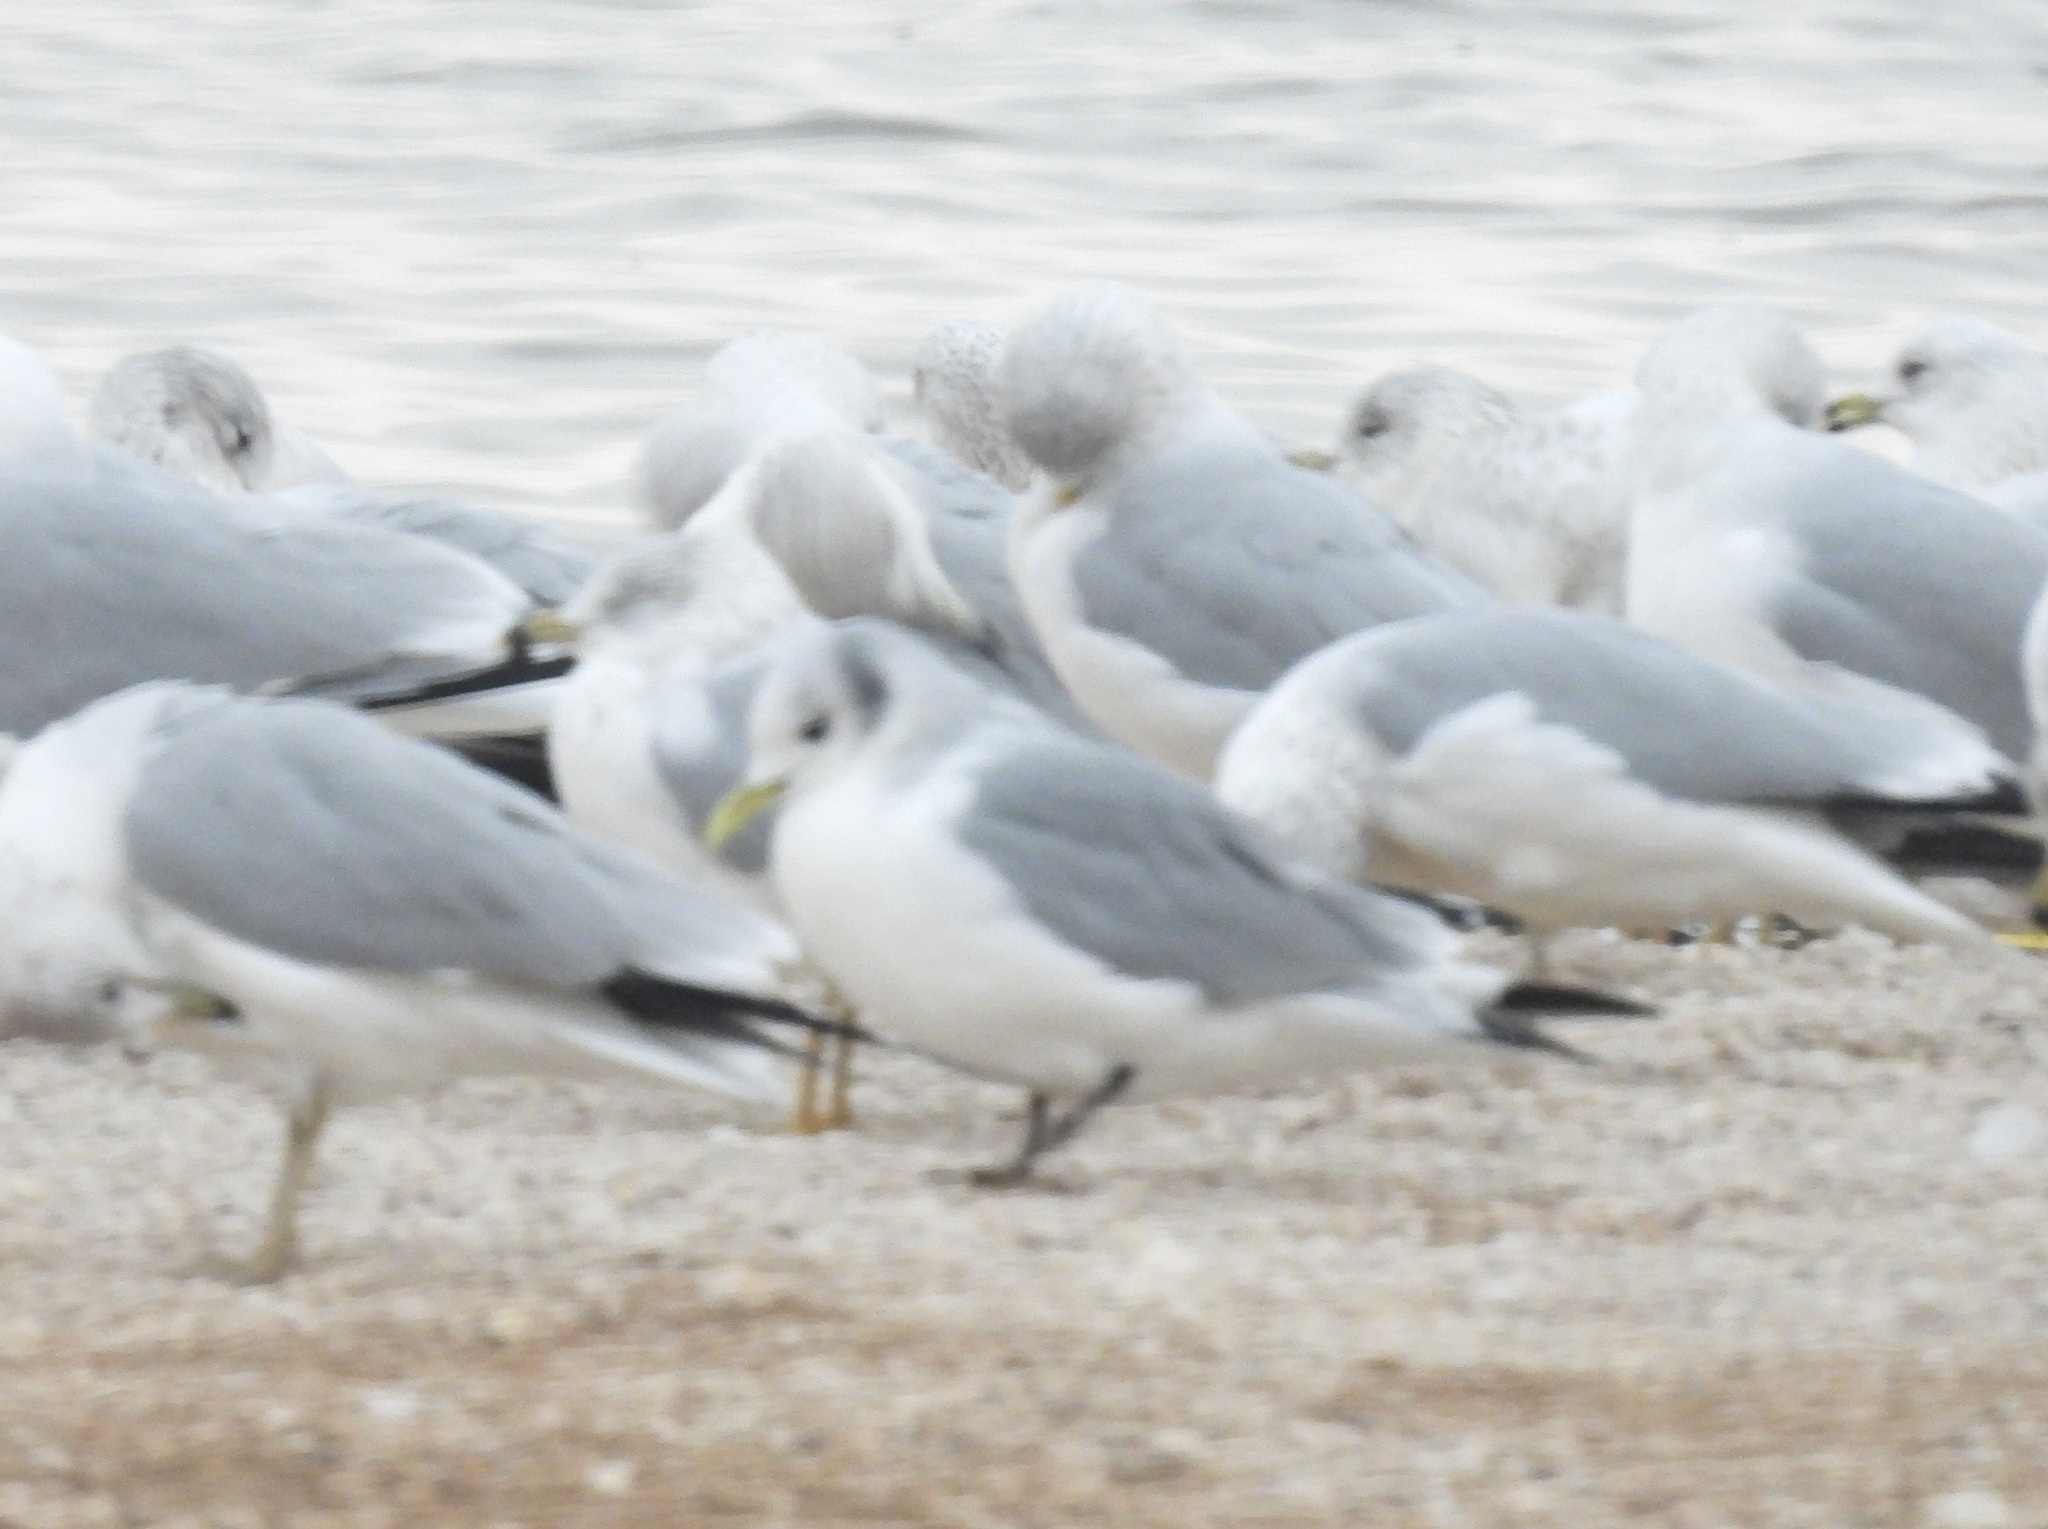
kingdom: Animalia
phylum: Chordata
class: Aves
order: Charadriiformes
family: Laridae
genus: Rissa
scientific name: Rissa tridactyla
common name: Black-legged kittiwake
